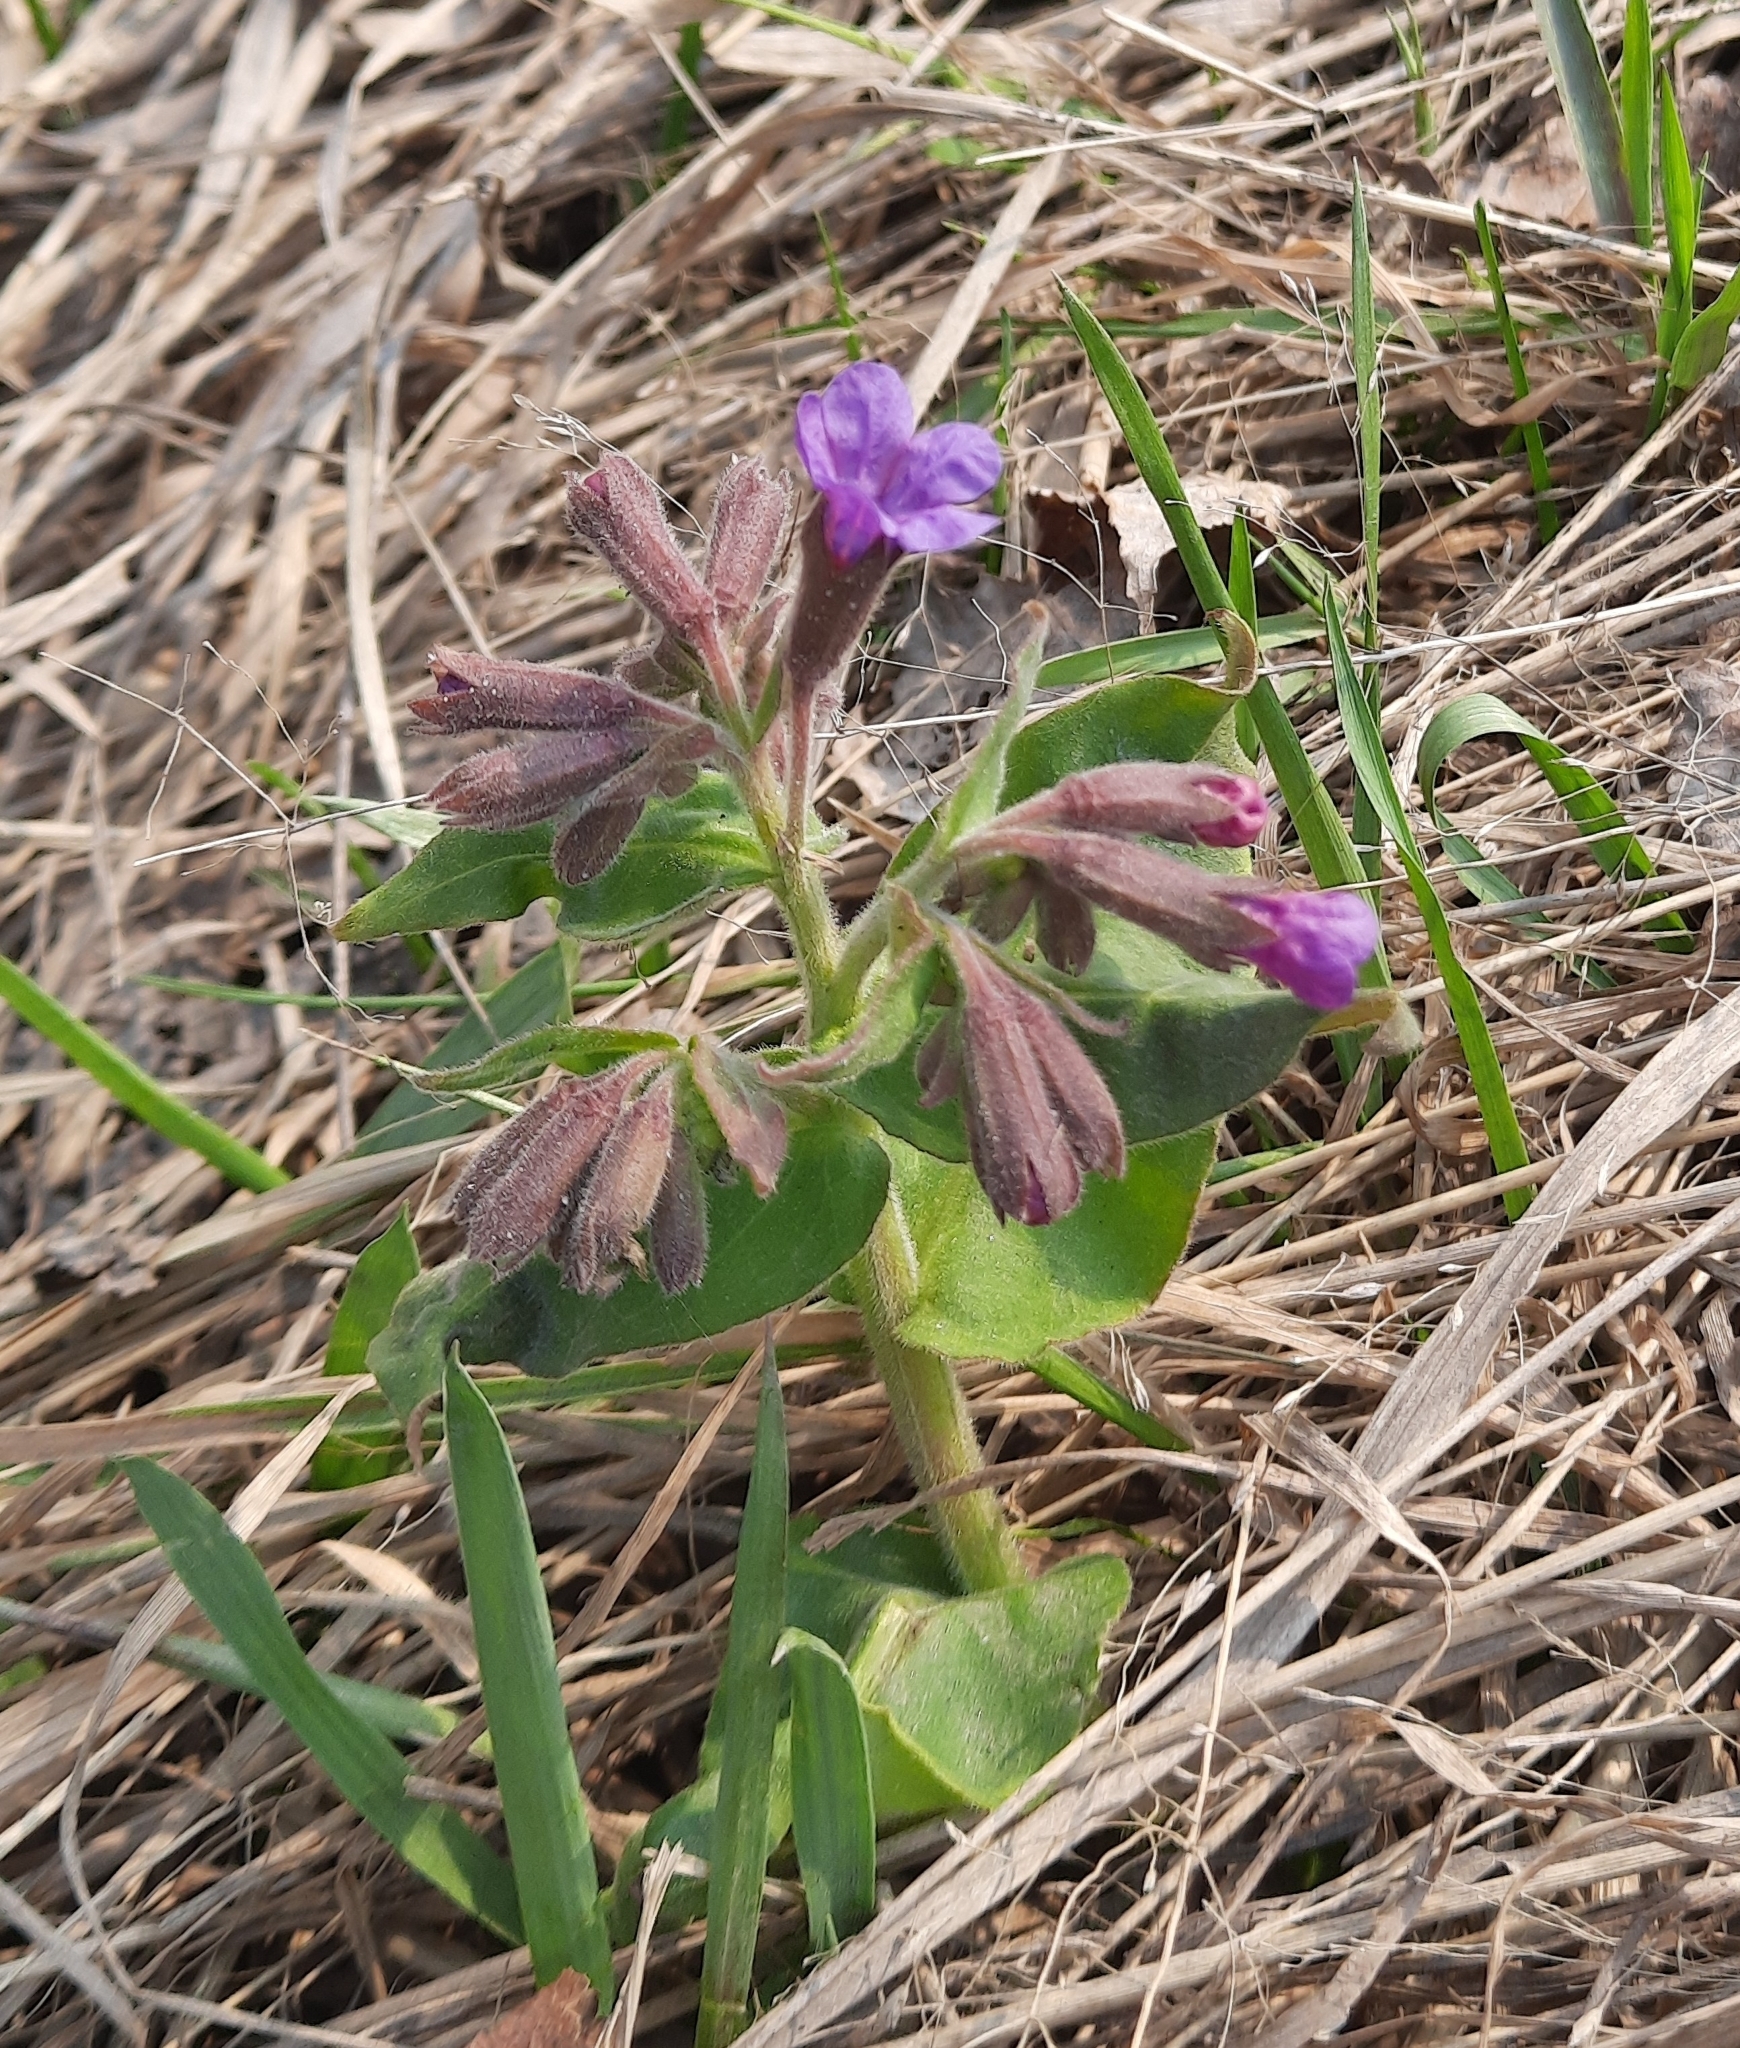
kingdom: Plantae
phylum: Tracheophyta
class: Magnoliopsida
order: Boraginales
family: Boraginaceae
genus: Pulmonaria
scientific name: Pulmonaria mollis
